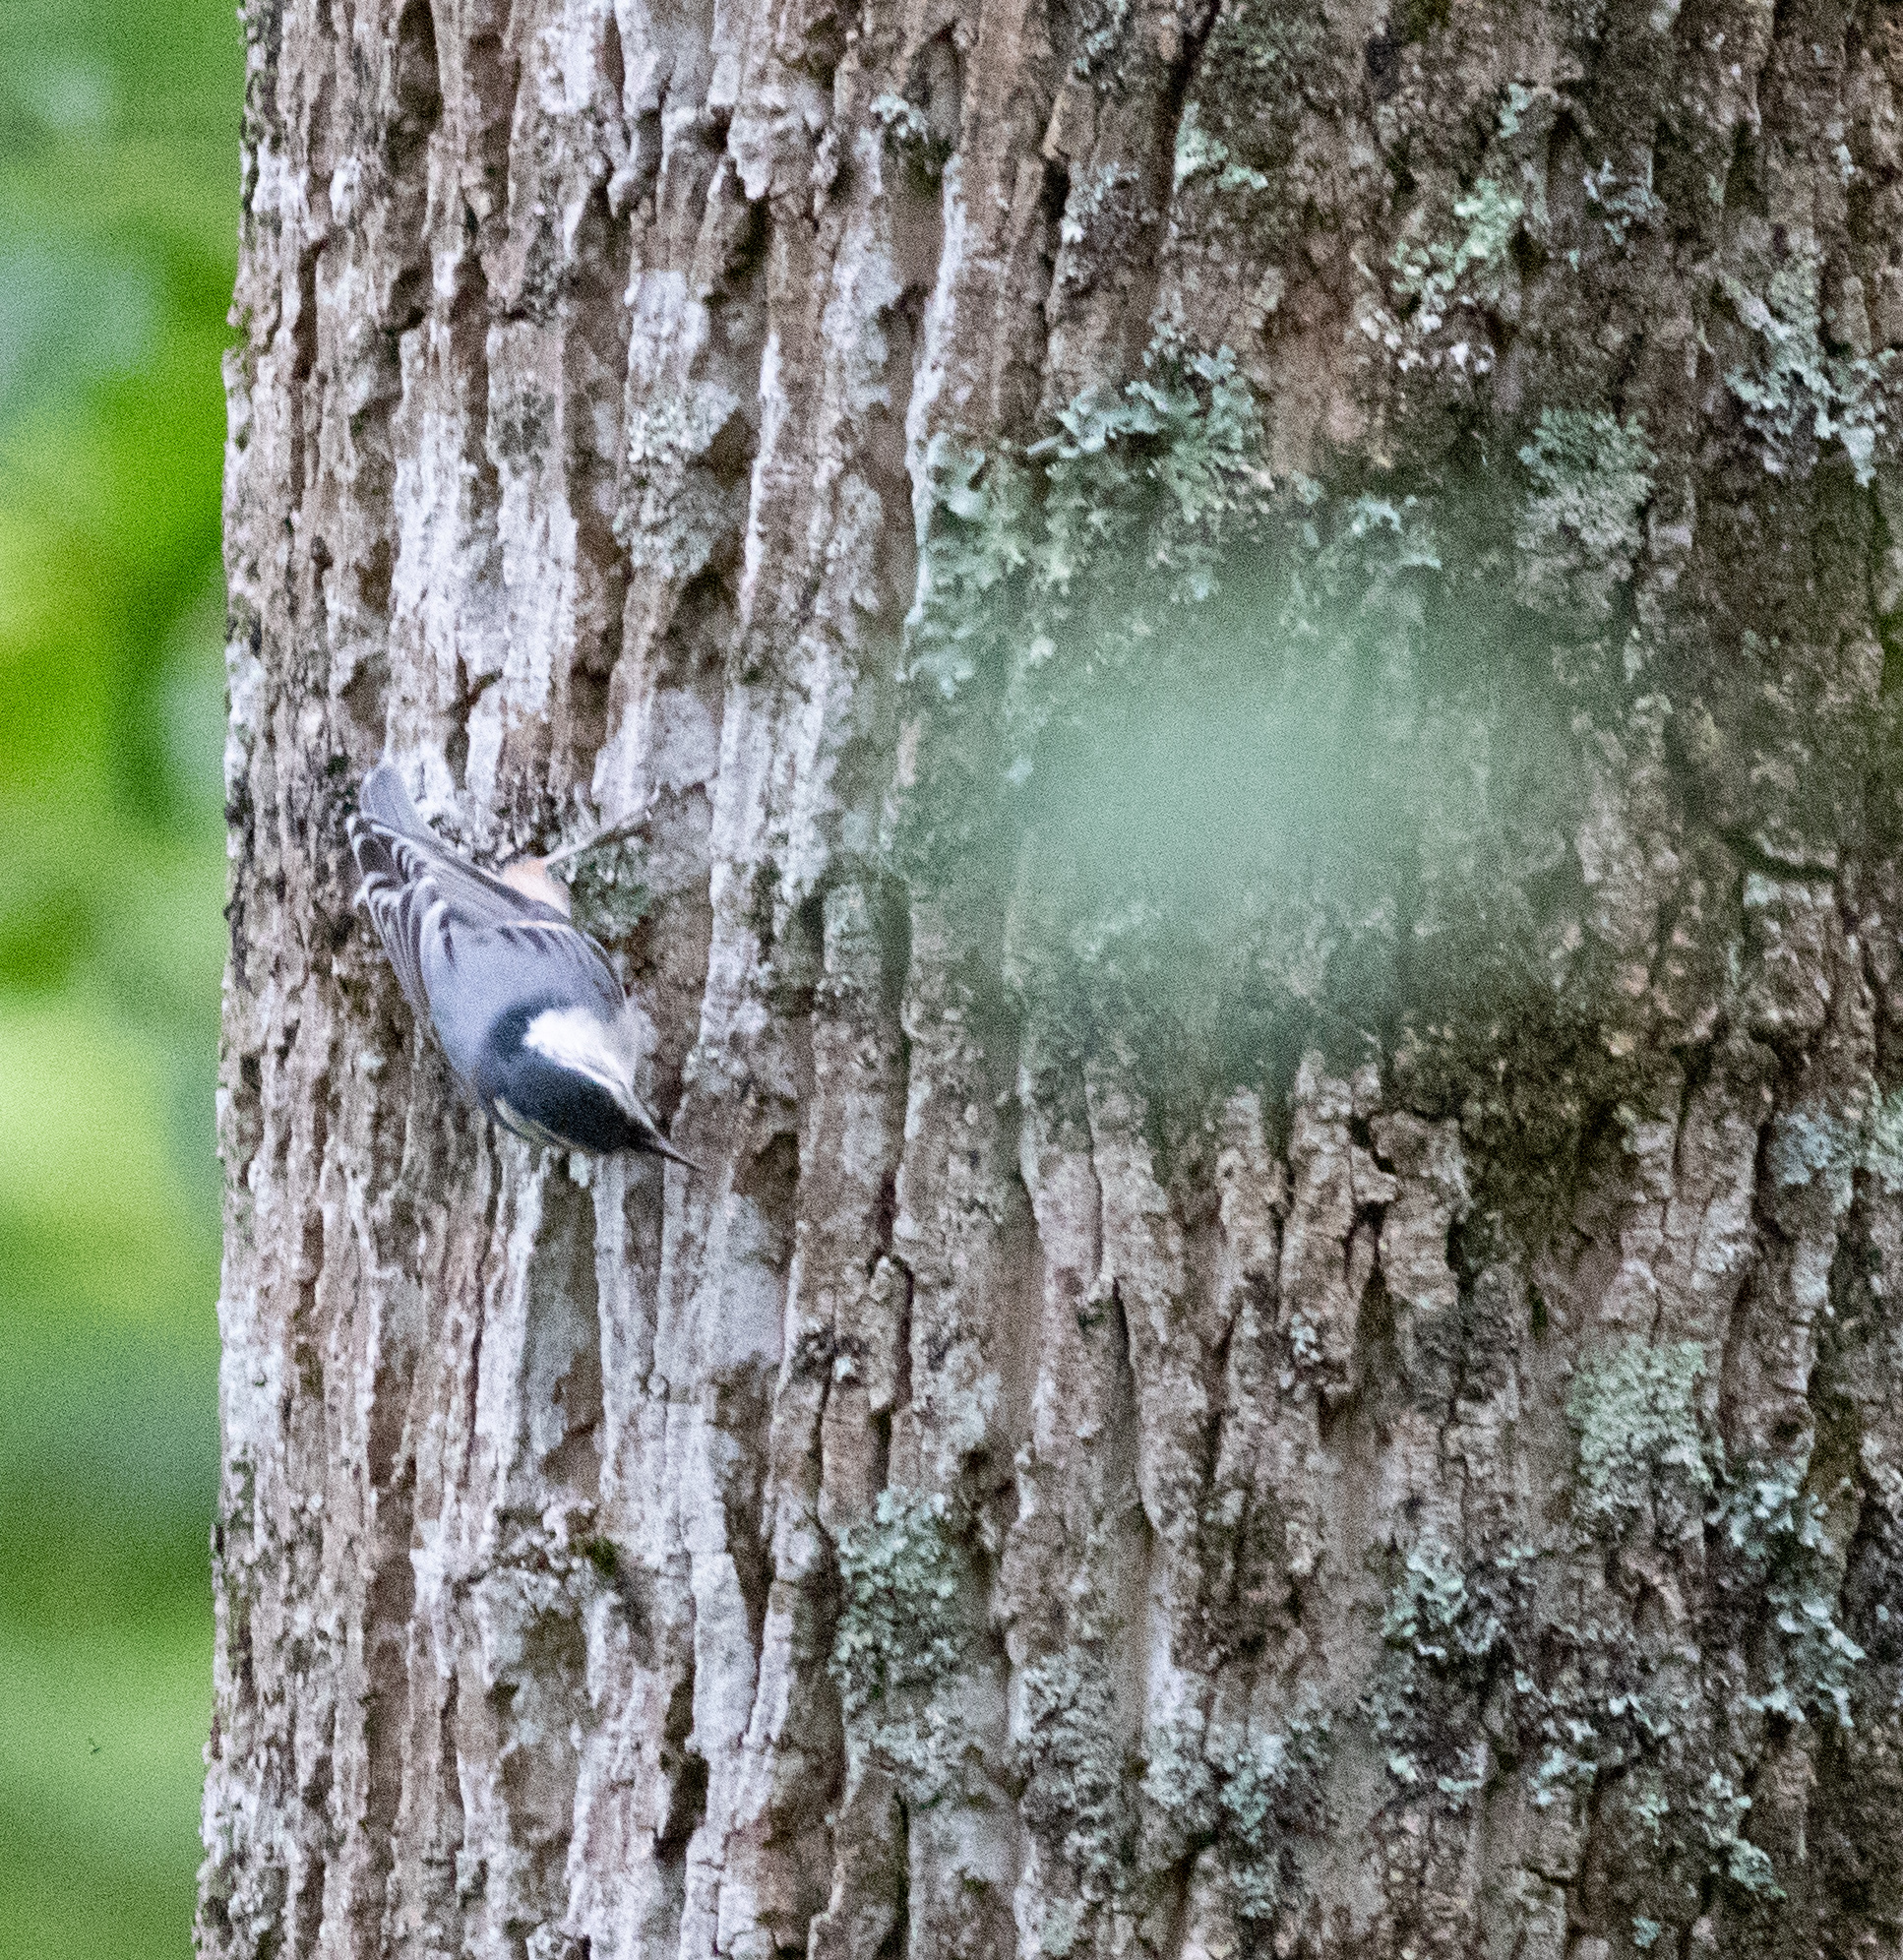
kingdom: Animalia
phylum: Chordata
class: Aves
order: Passeriformes
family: Sittidae
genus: Sitta
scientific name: Sitta carolinensis
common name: White-breasted nuthatch
